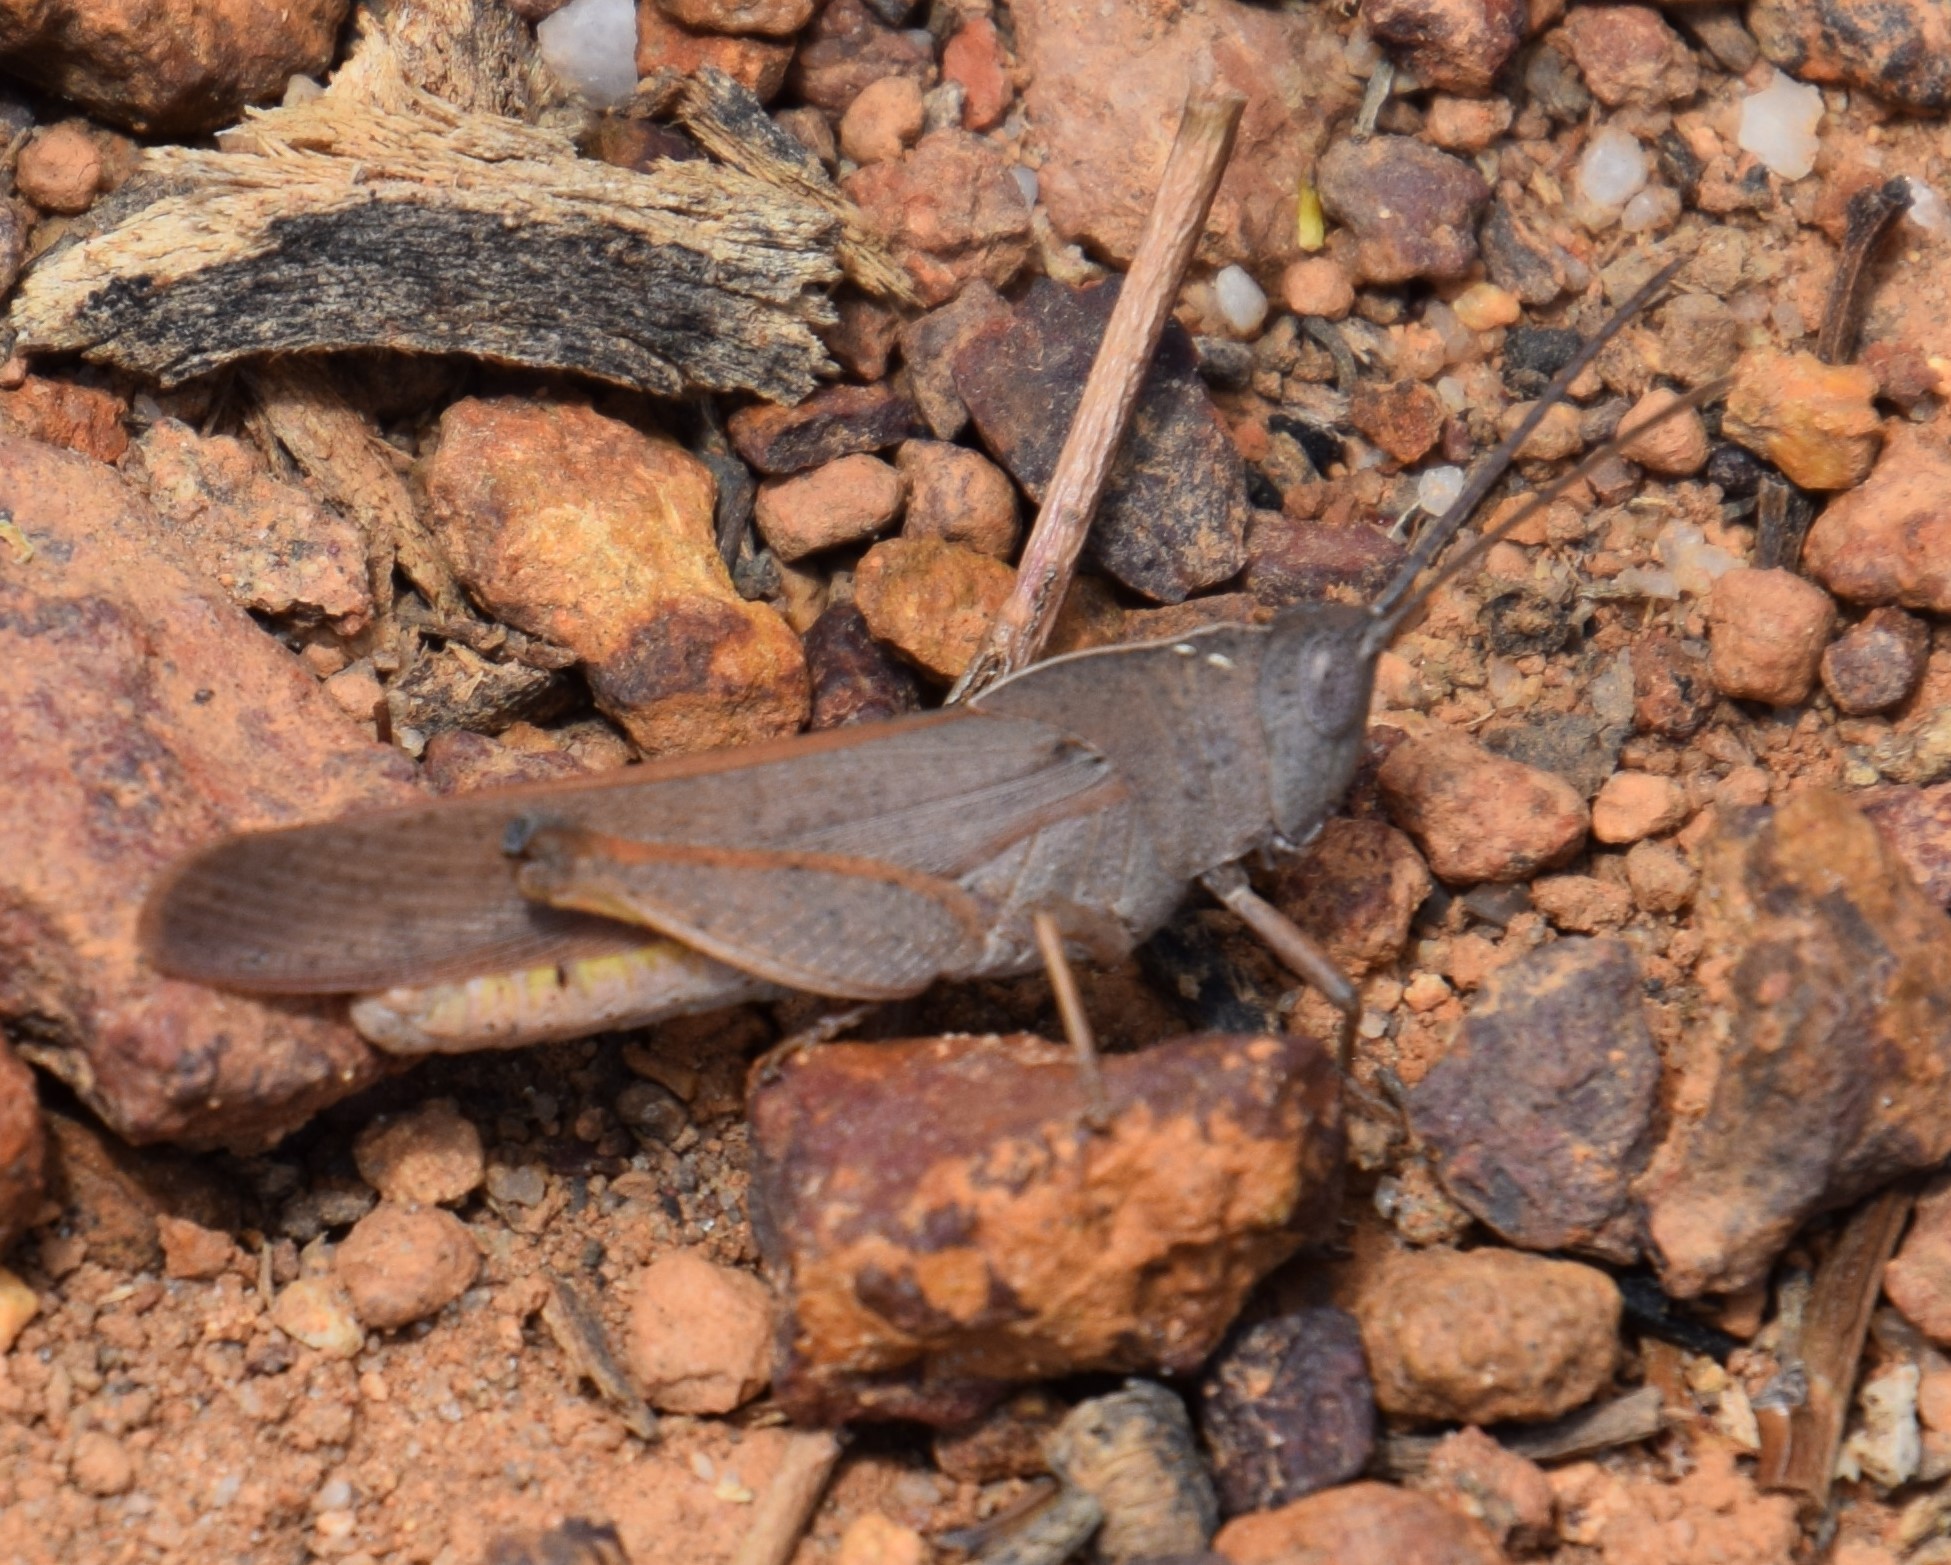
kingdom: Animalia
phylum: Arthropoda
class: Insecta
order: Orthoptera
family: Acrididae
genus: Goniaea
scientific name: Goniaea australasiae
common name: Gumleaf grasshopper
